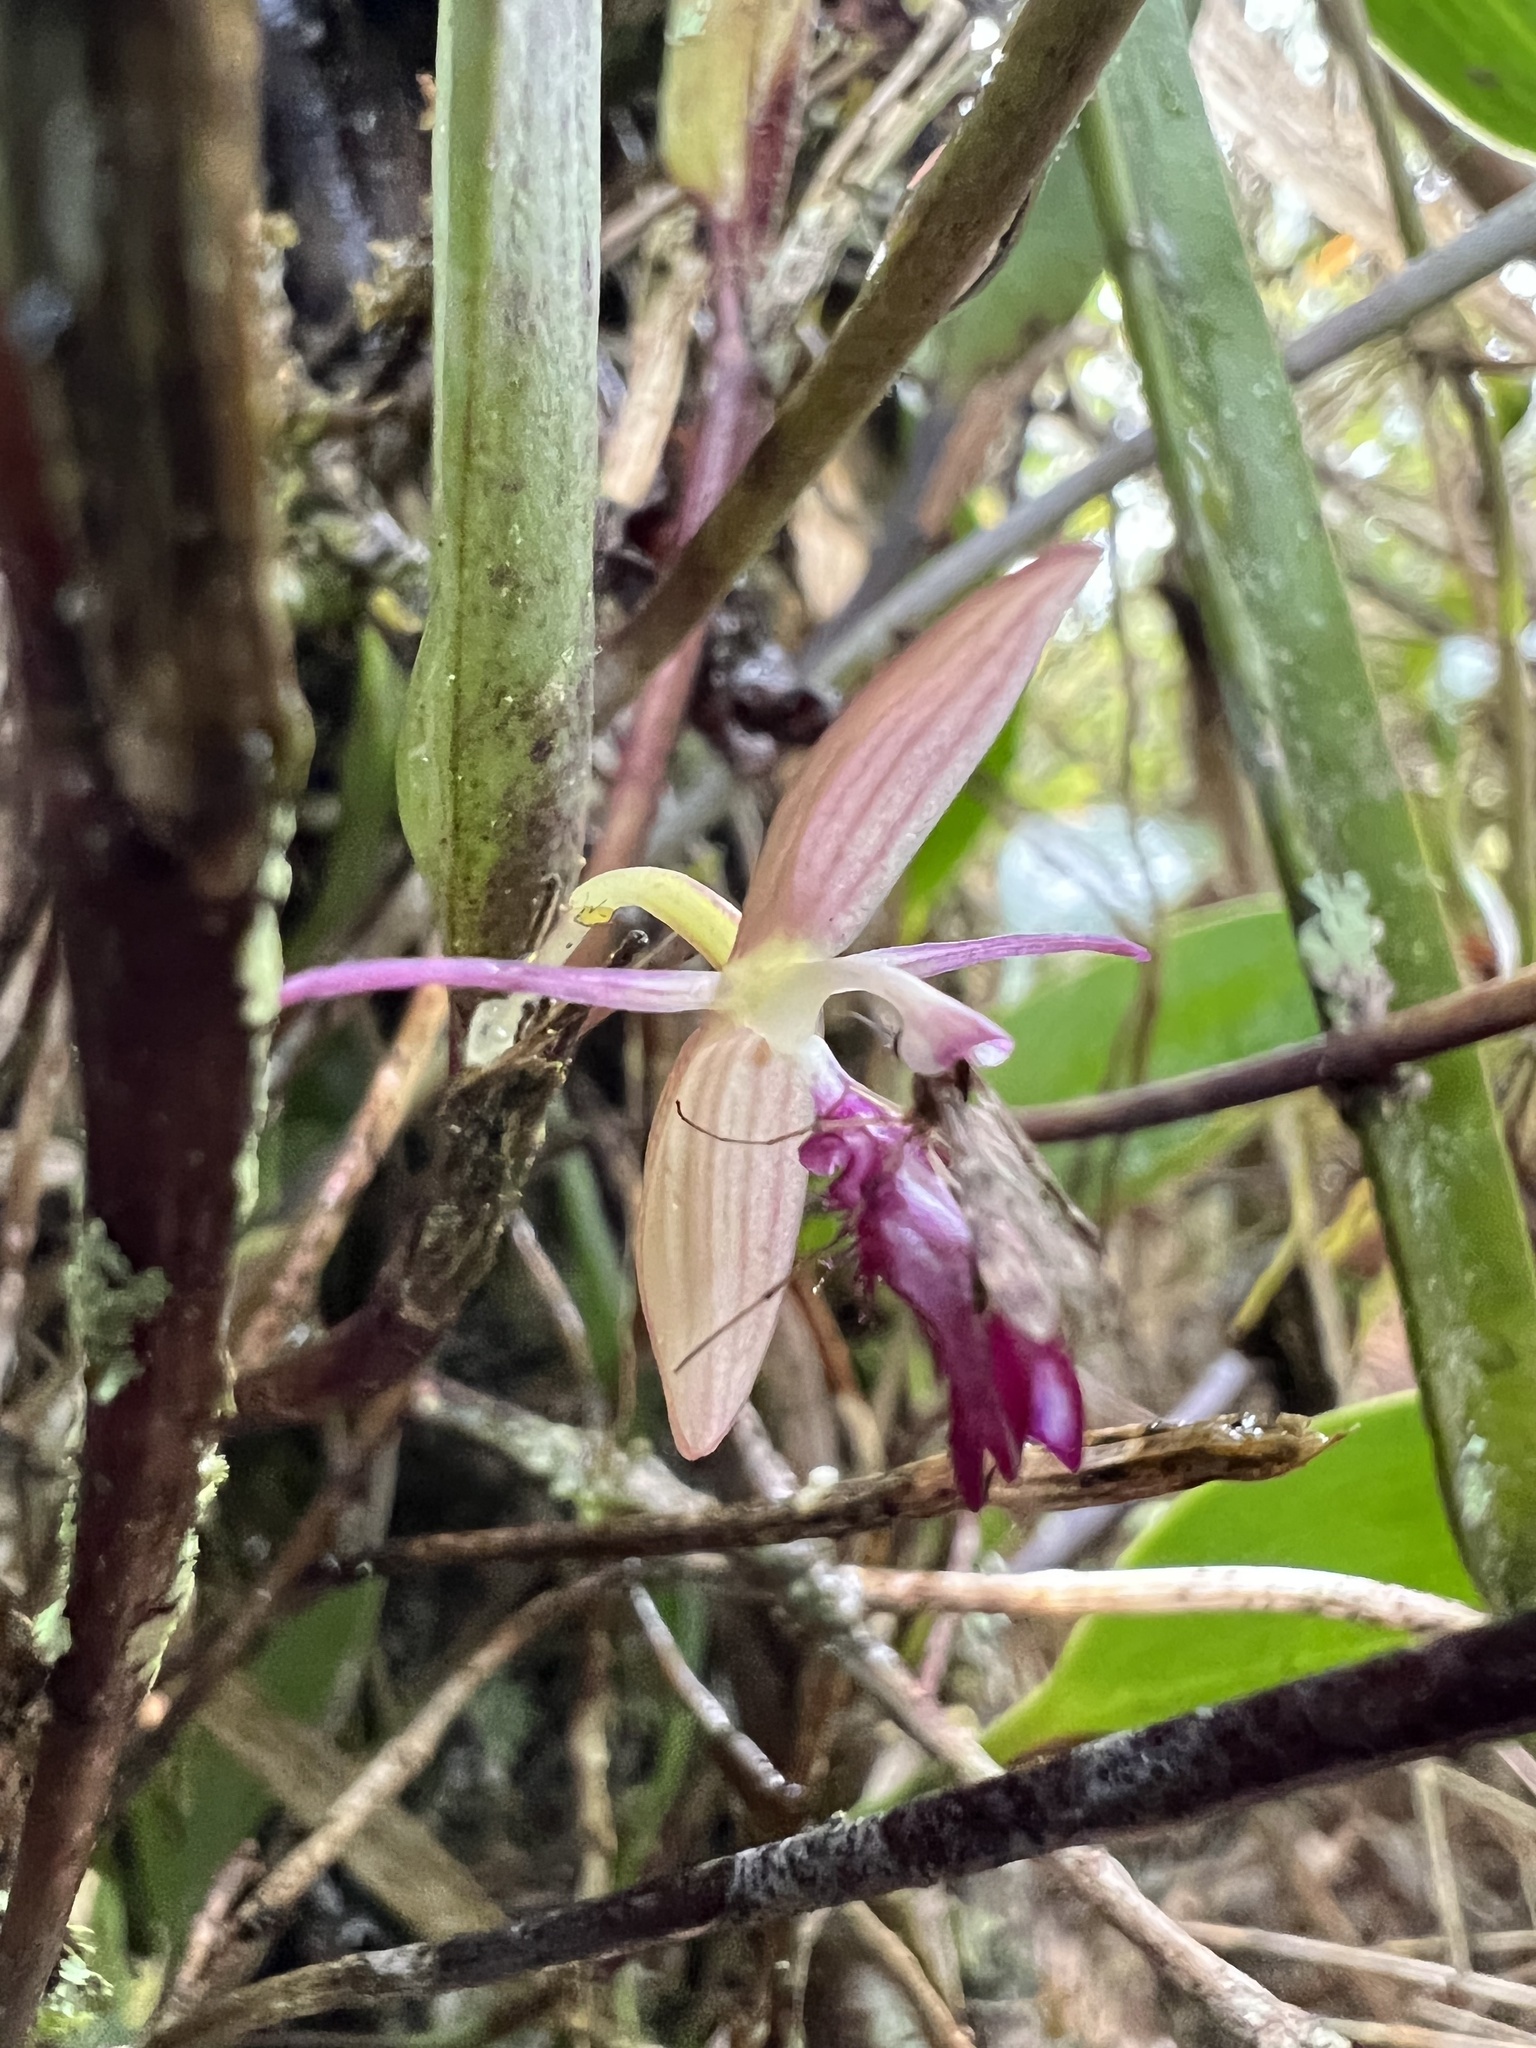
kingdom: Plantae
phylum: Tracheophyta
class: Liliopsida
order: Asparagales
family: Orchidaceae
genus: Pleurothallis
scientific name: Pleurothallis talpinaria
